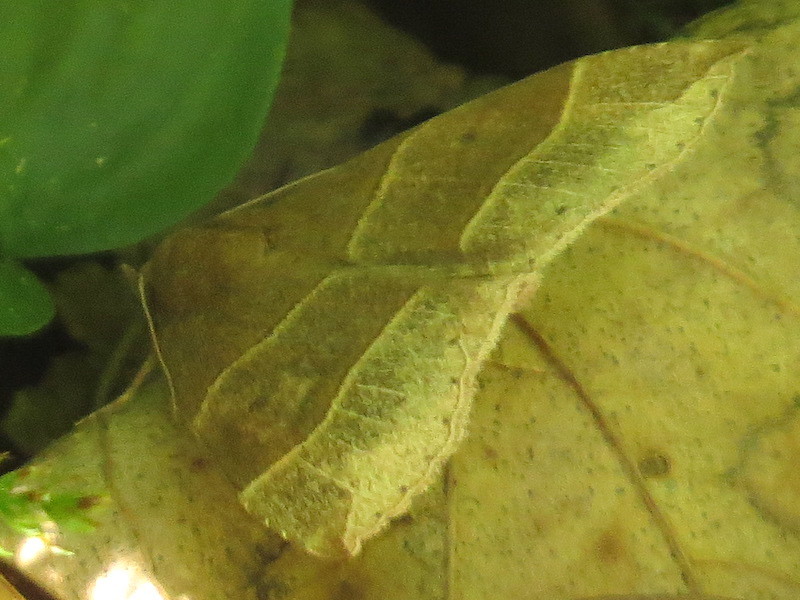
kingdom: Animalia
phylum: Arthropoda
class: Insecta
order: Lepidoptera
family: Erebidae
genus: Parallelia
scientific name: Parallelia bistriaris
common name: Maple looper moth
